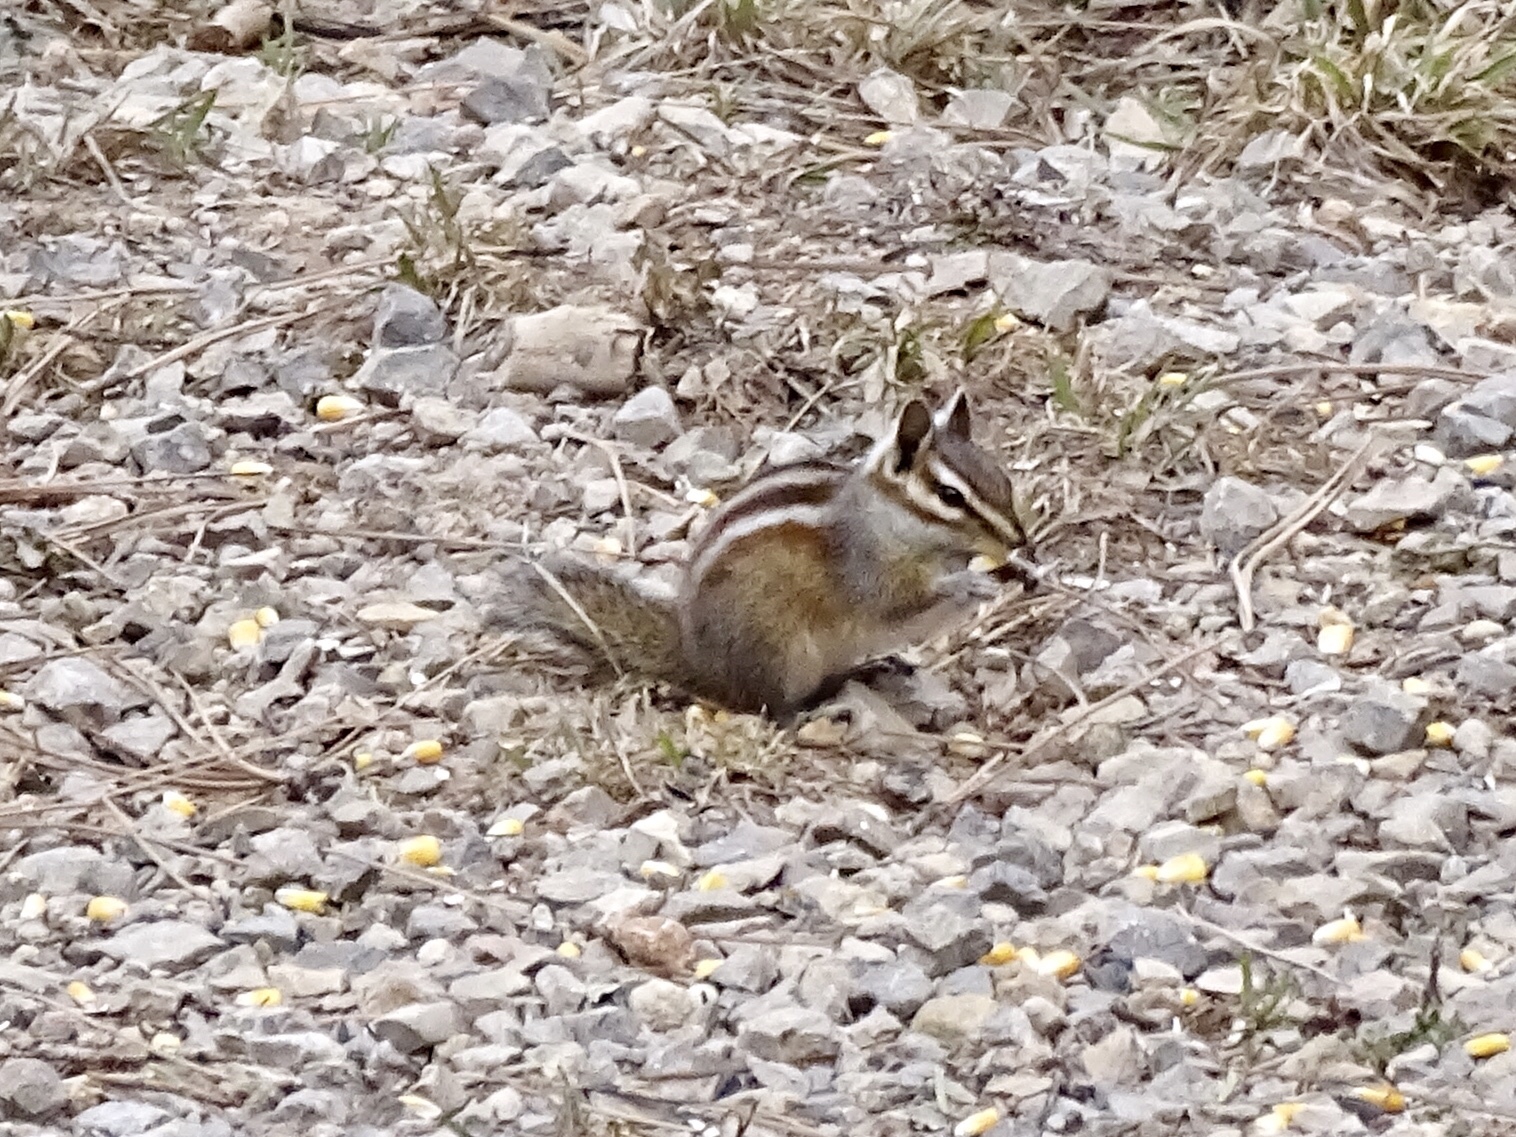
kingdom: Animalia
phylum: Chordata
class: Mammalia
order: Rodentia
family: Sciuridae
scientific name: Sciuridae
